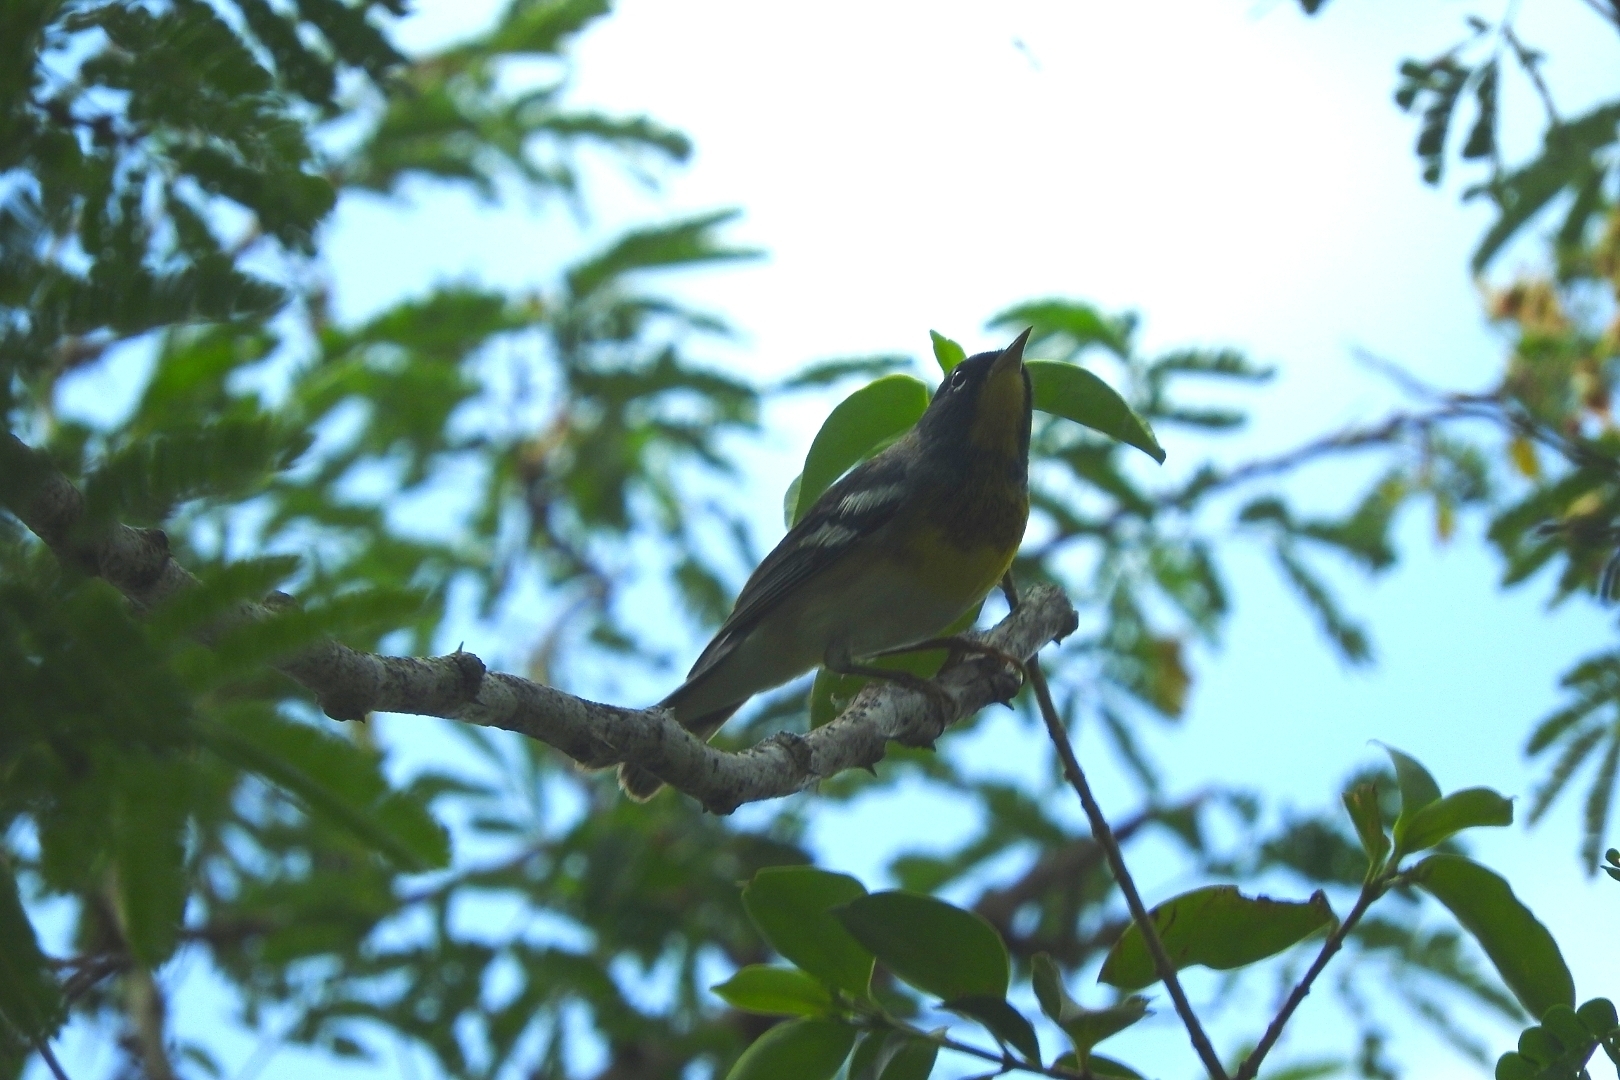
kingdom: Animalia
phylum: Chordata
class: Aves
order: Passeriformes
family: Parulidae
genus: Setophaga
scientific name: Setophaga americana
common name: Northern parula
